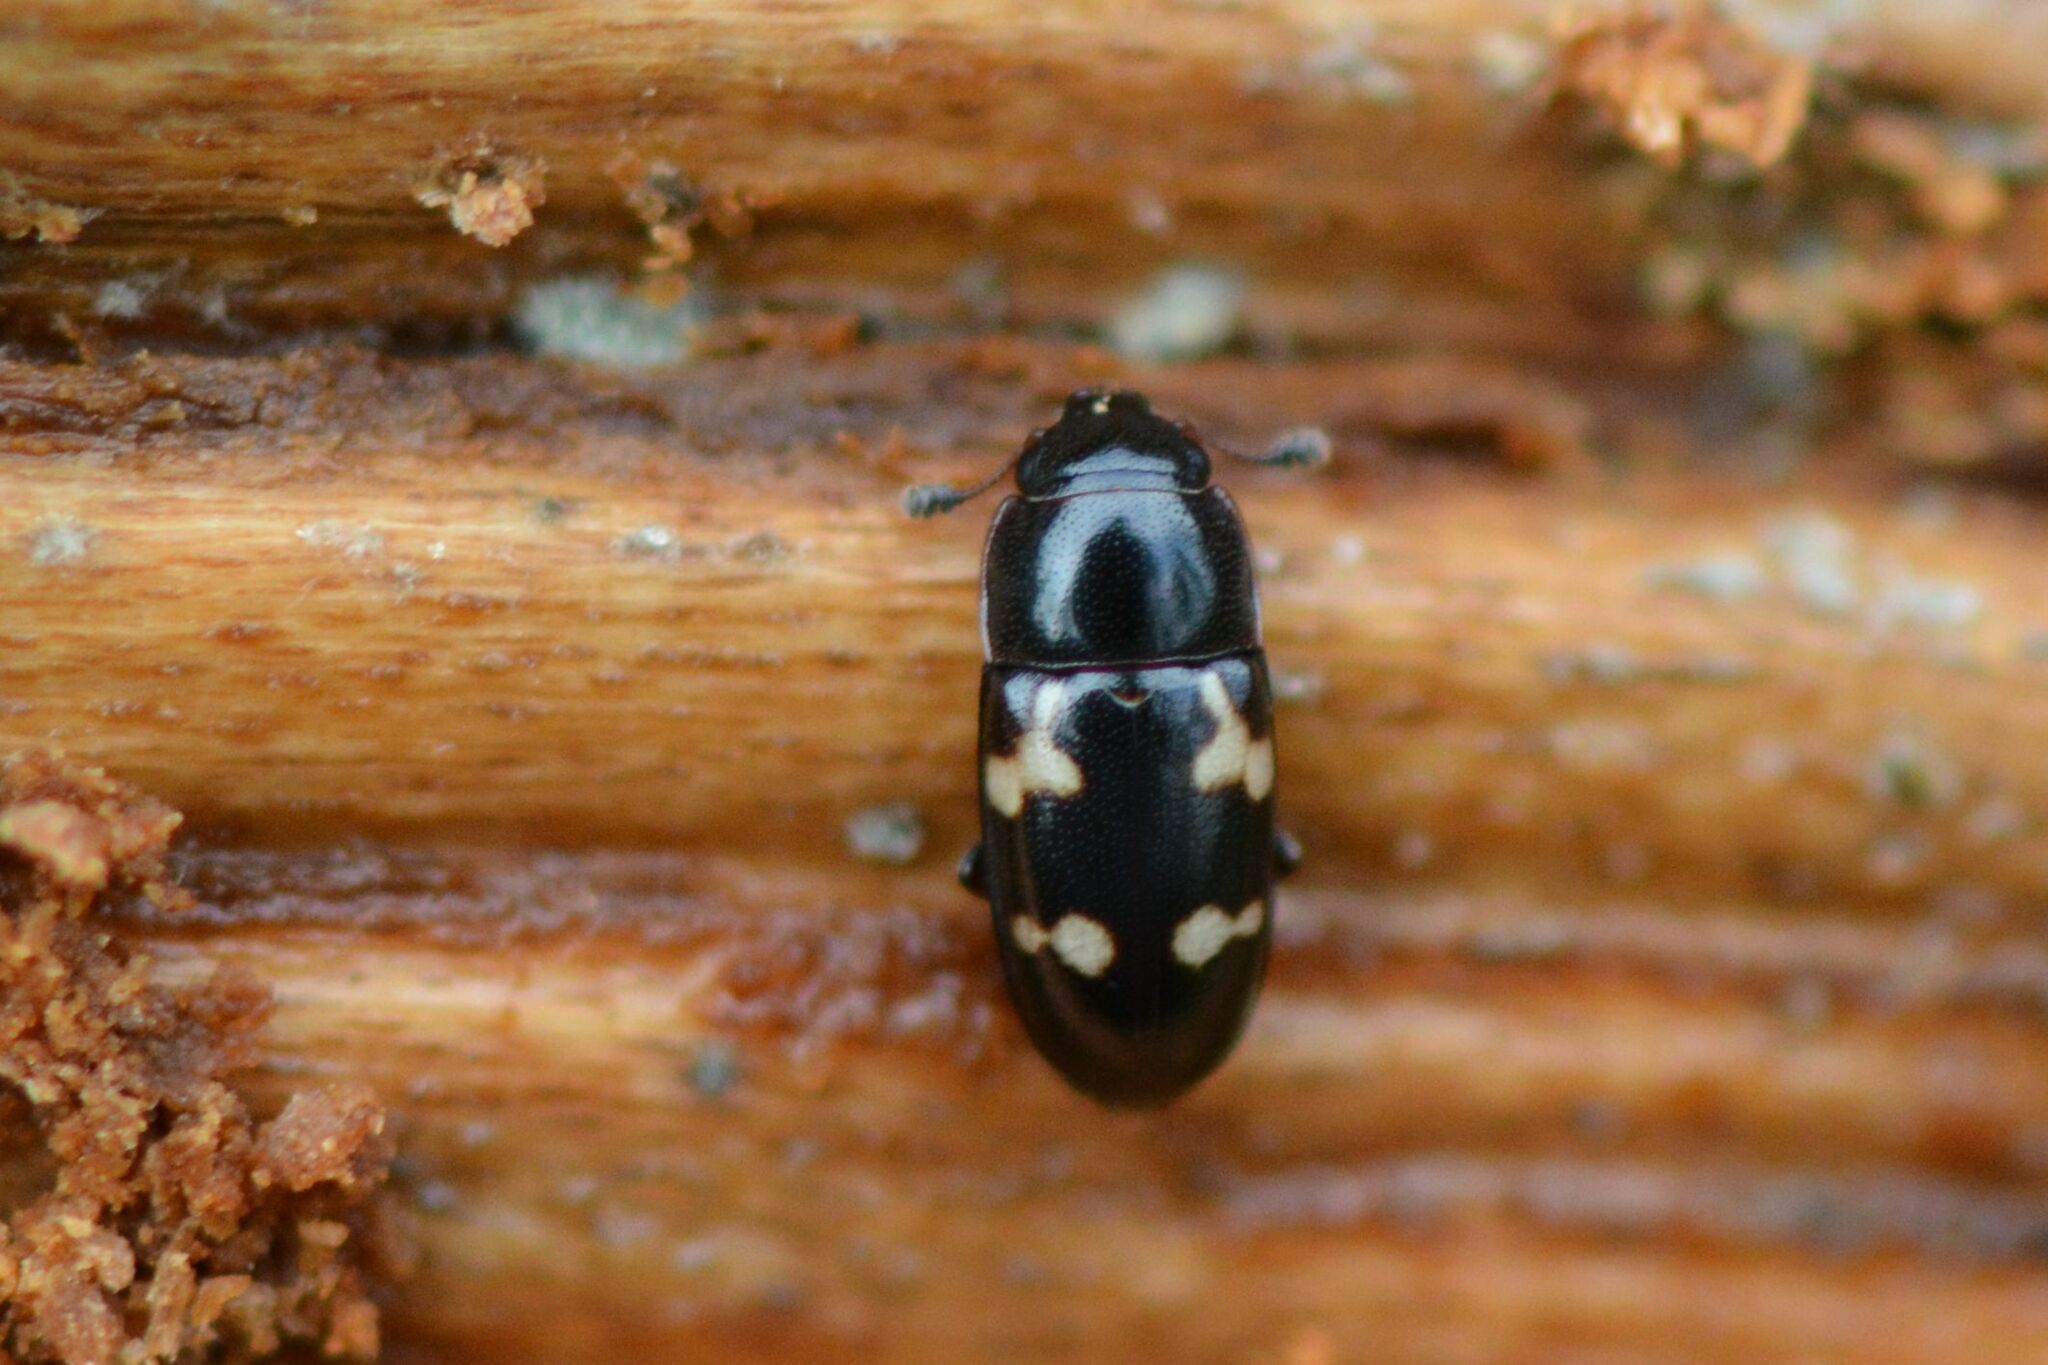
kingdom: Animalia
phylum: Arthropoda
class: Insecta
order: Coleoptera
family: Nitidulidae
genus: Glischrochilus
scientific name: Glischrochilus quadriguttatus
